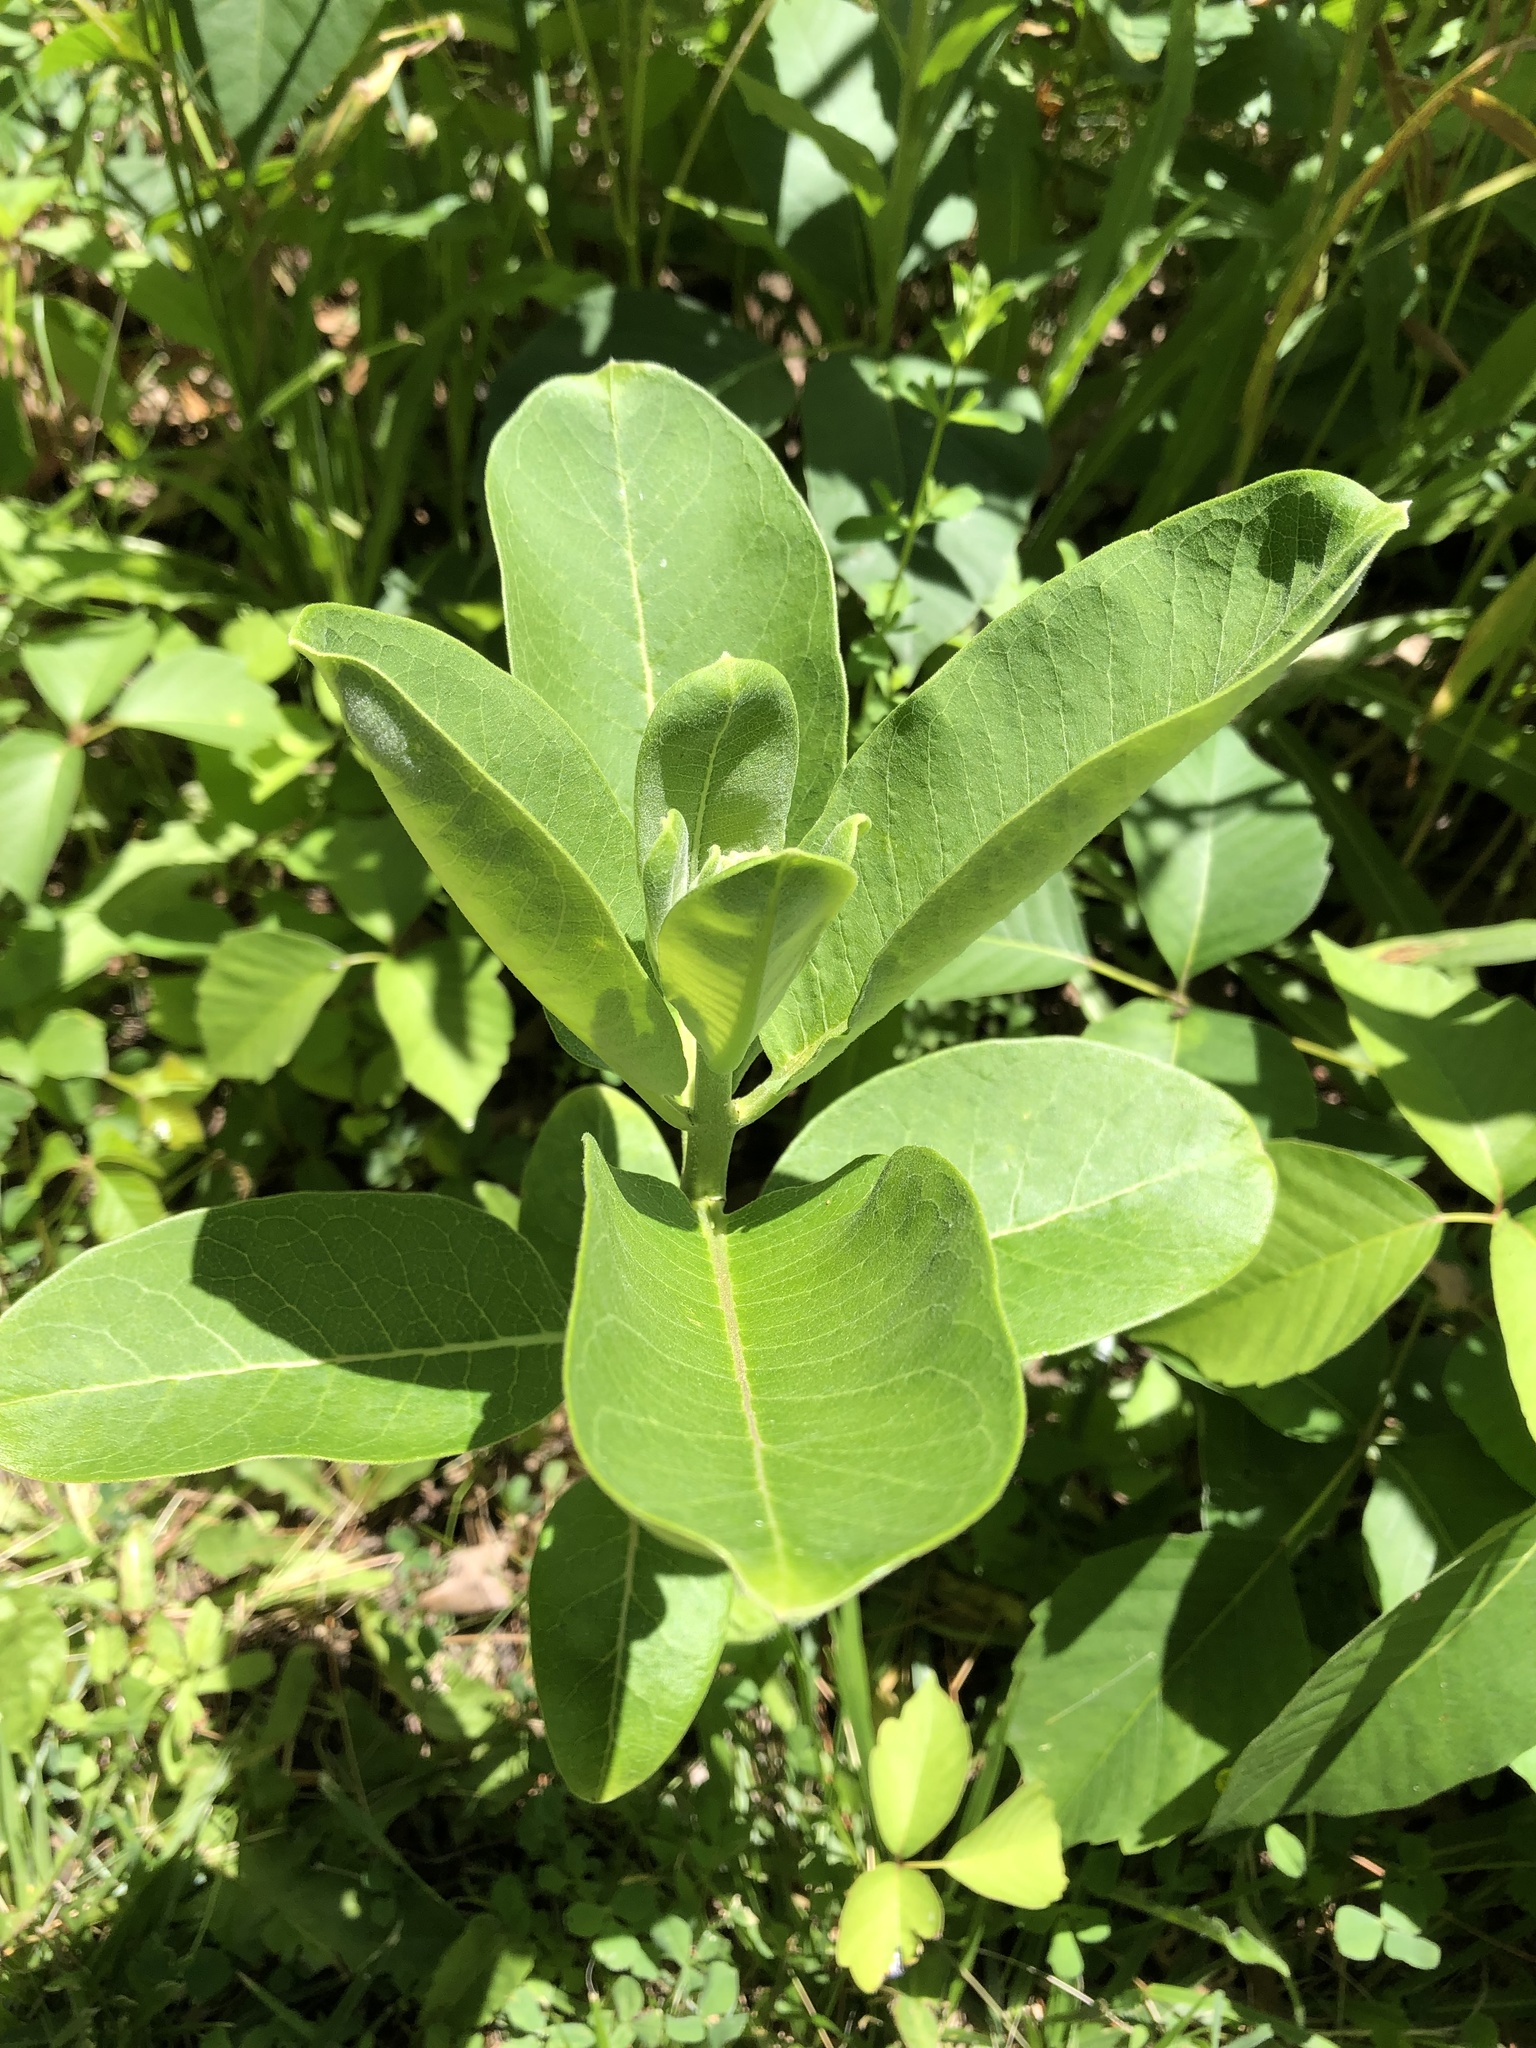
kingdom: Plantae
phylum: Tracheophyta
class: Magnoliopsida
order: Gentianales
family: Apocynaceae
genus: Asclepias
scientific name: Asclepias syriaca
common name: Common milkweed
